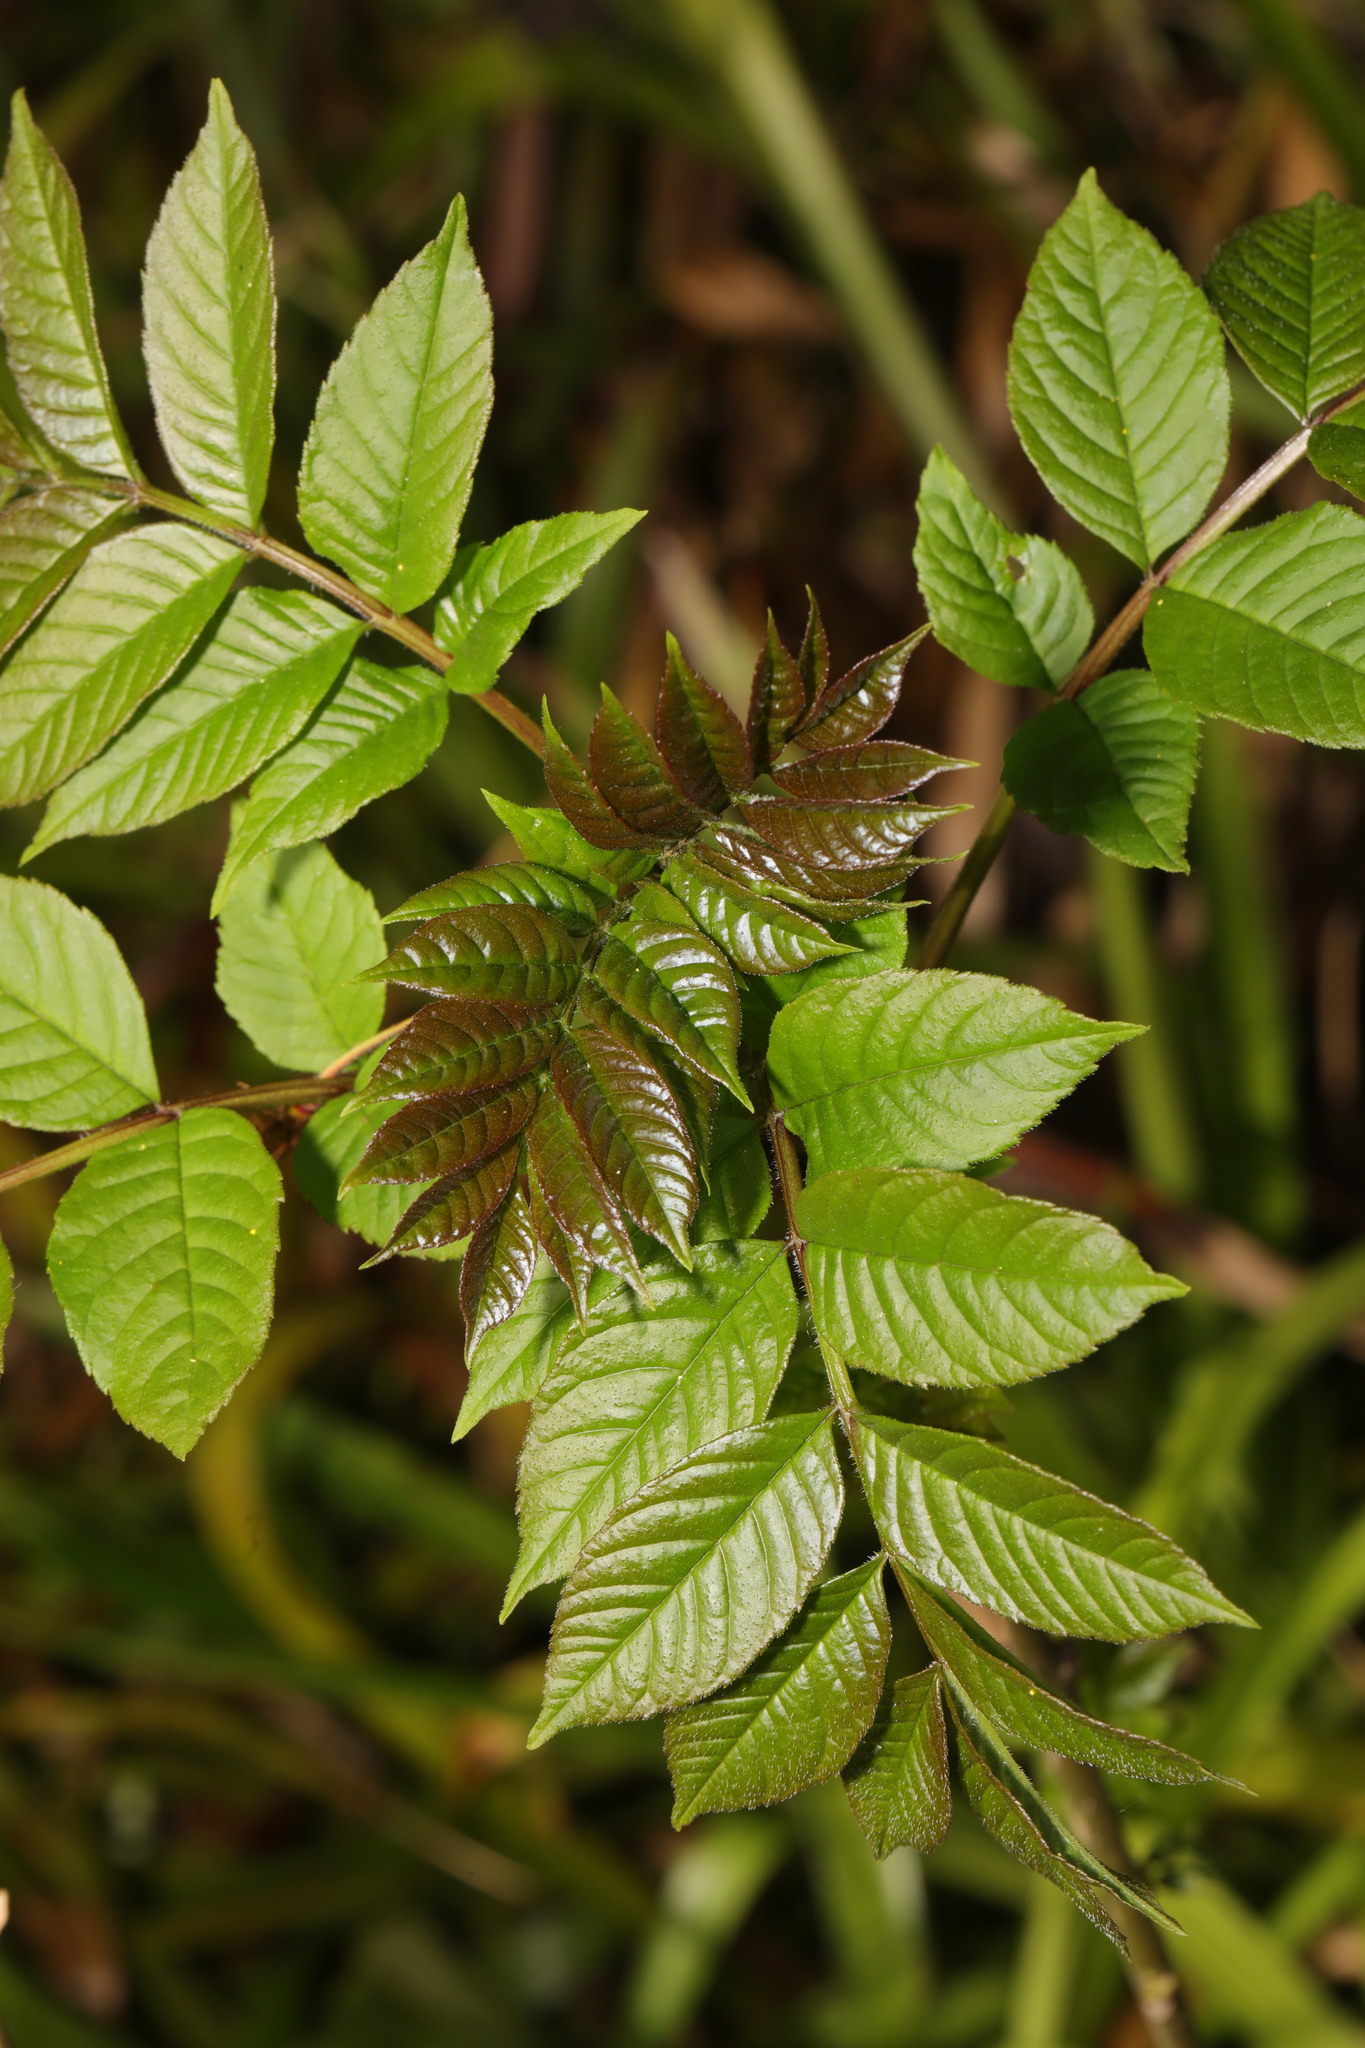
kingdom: Plantae
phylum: Tracheophyta
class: Magnoliopsida
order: Lamiales
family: Oleaceae
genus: Fraxinus
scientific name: Fraxinus excelsior
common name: European ash
